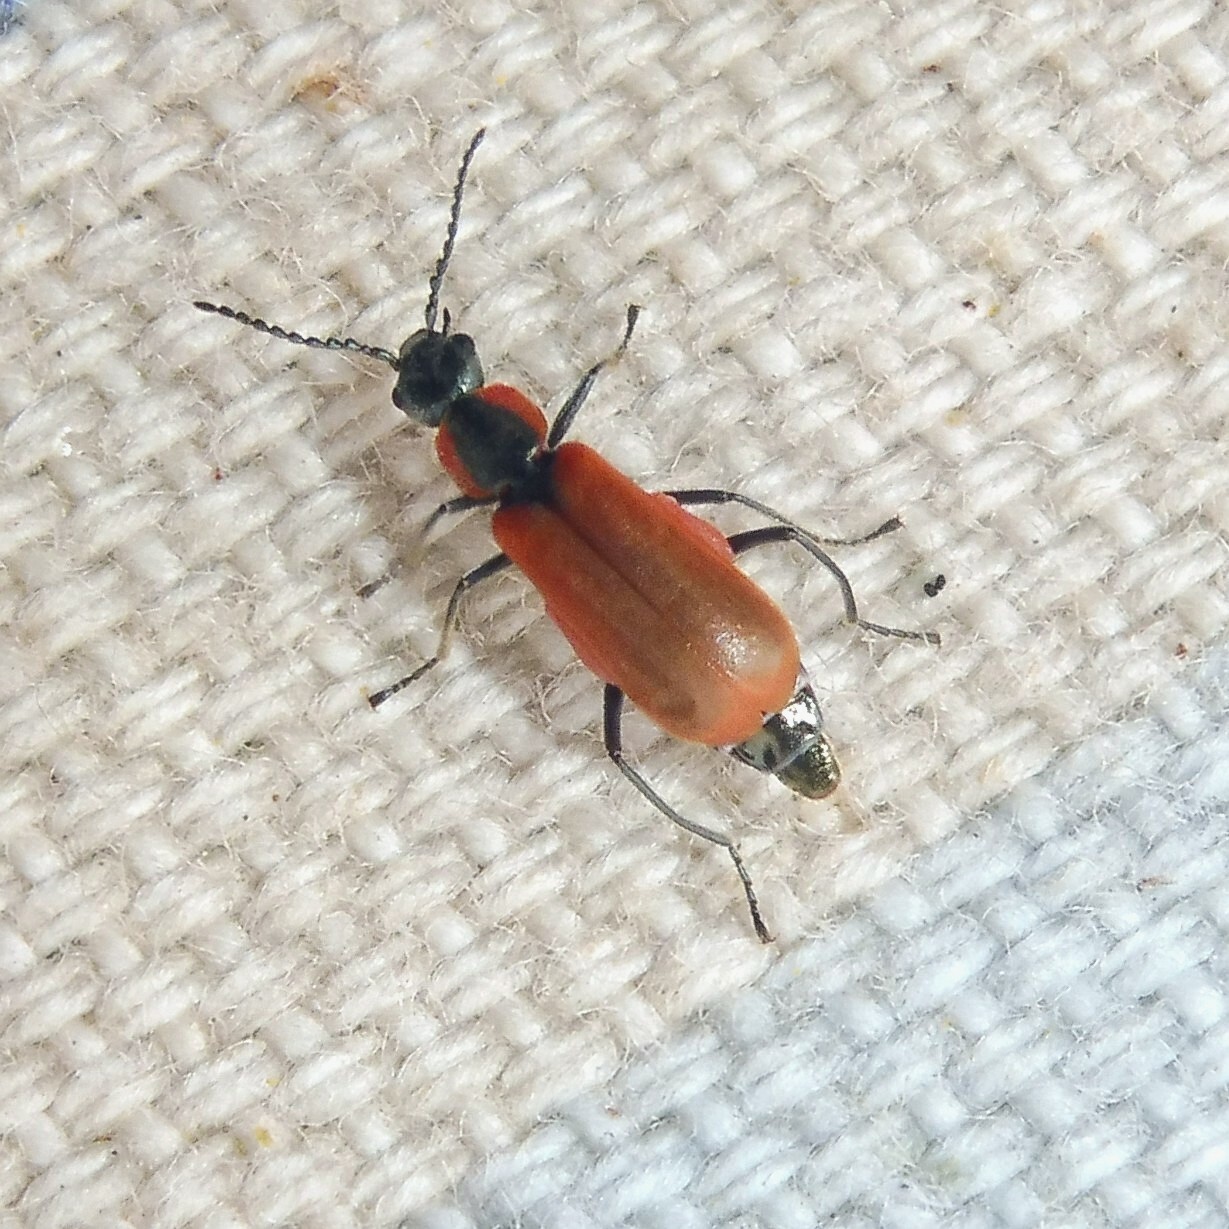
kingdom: Animalia
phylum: Arthropoda
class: Insecta
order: Coleoptera
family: Melyridae
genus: Anthocomus
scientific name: Anthocomus rufus
